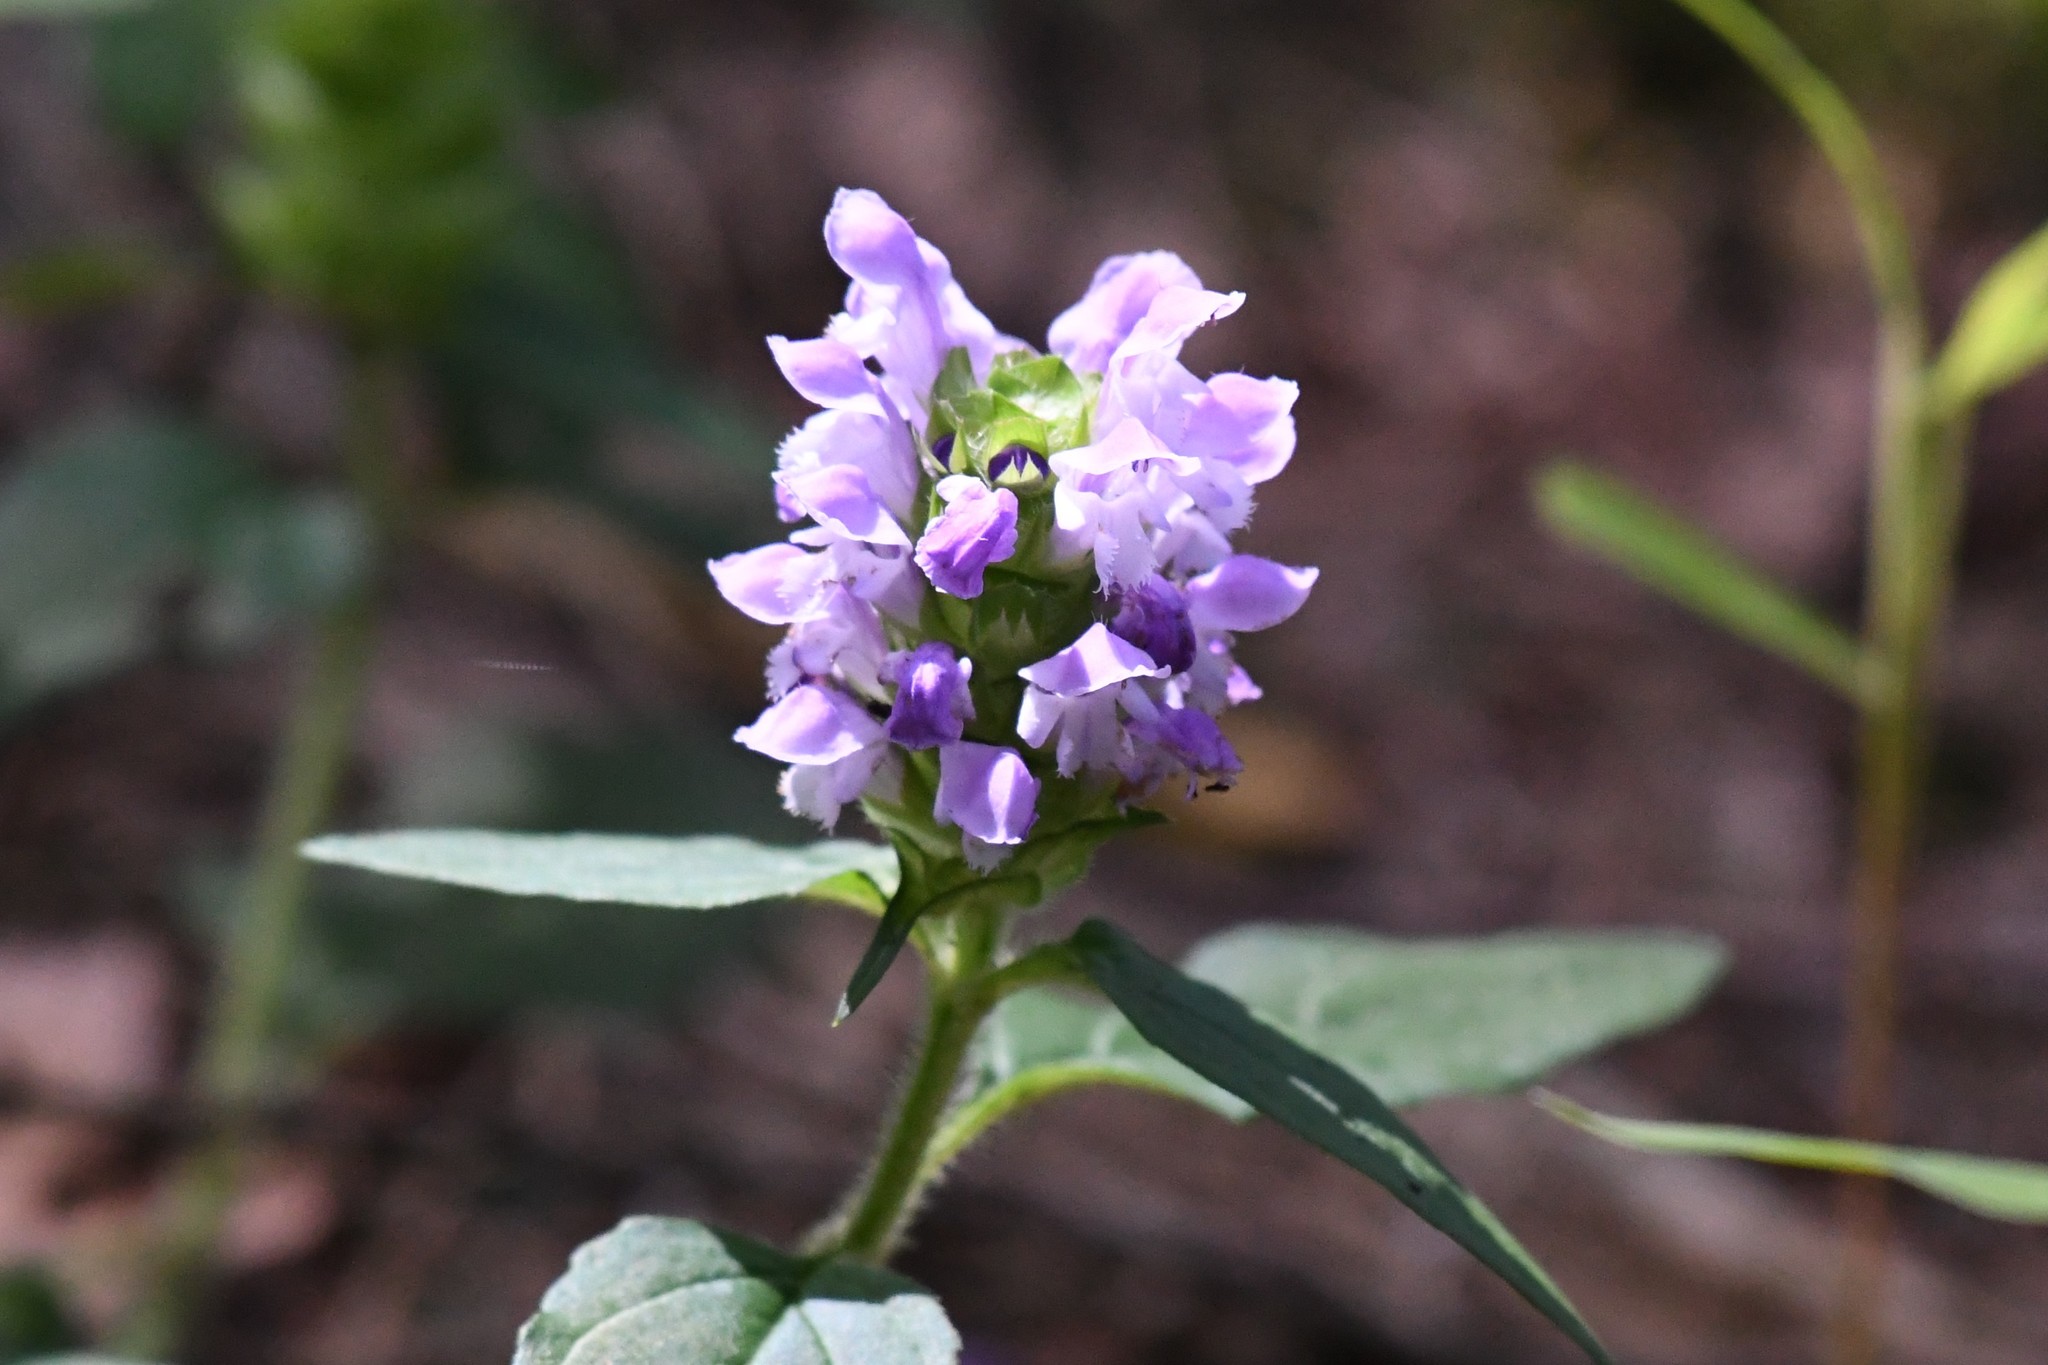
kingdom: Plantae
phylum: Tracheophyta
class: Magnoliopsida
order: Lamiales
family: Lamiaceae
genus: Prunella
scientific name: Prunella vulgaris
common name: Heal-all
